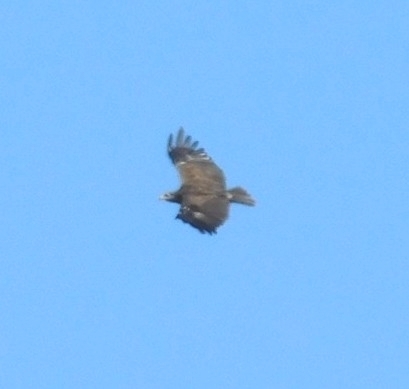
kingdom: Animalia
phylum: Chordata
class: Aves
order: Accipitriformes
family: Accipitridae
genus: Aquila
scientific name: Aquila pomarina
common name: Lesser spotted eagle
